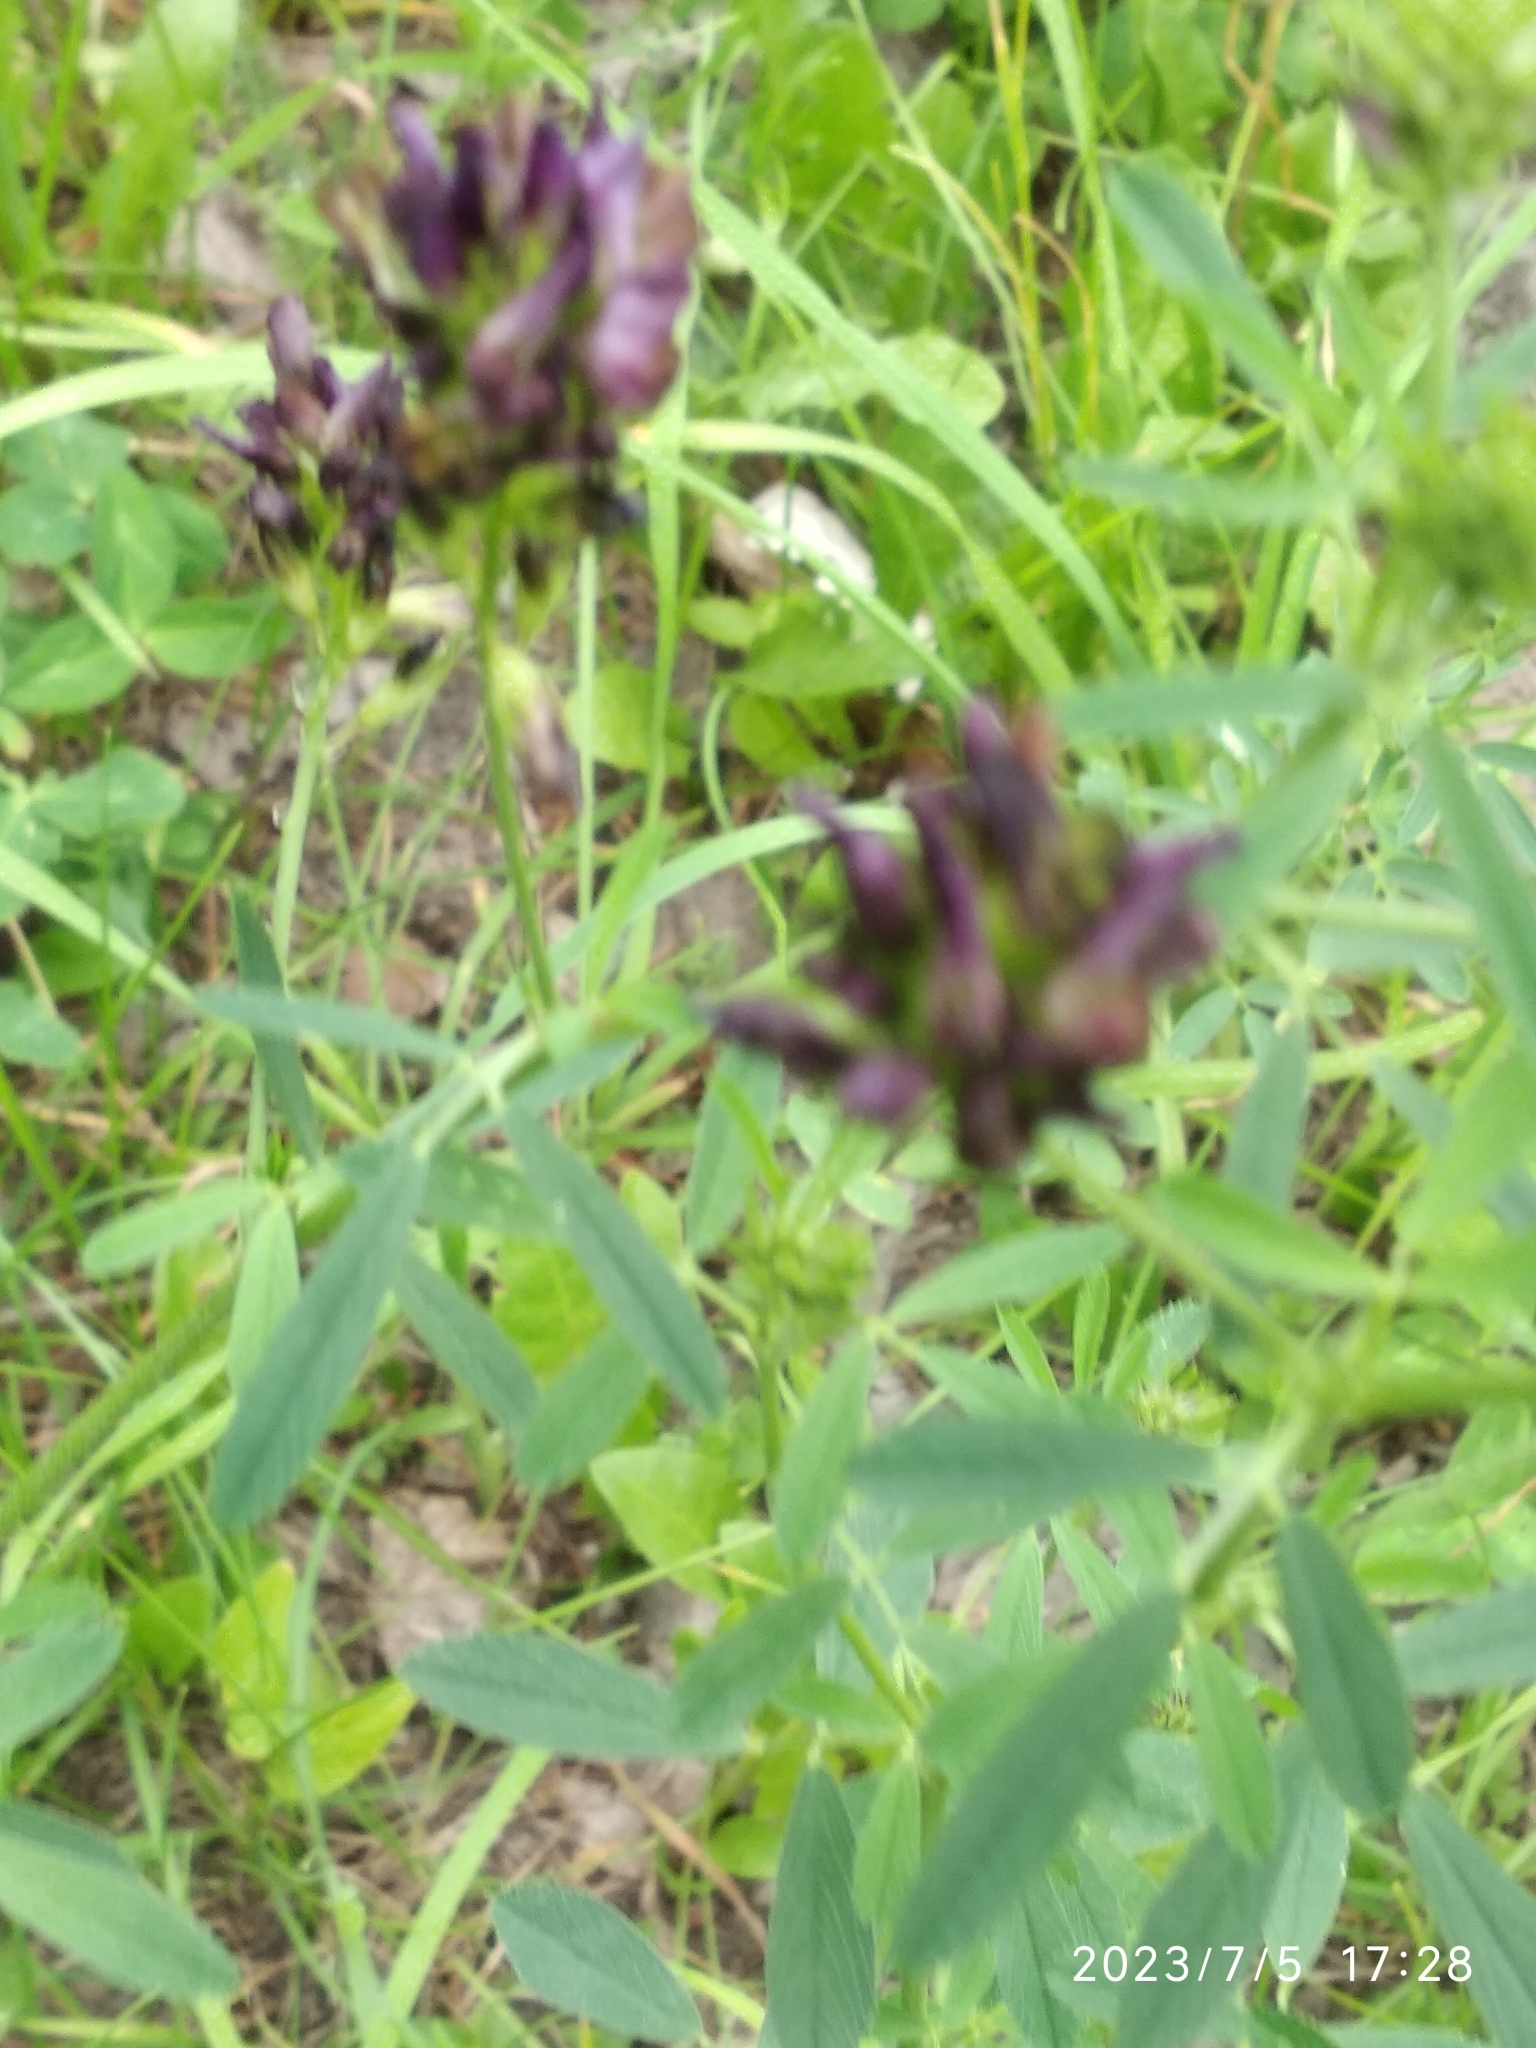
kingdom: Plantae
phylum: Tracheophyta
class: Magnoliopsida
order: Fabales
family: Fabaceae
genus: Medicago
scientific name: Medicago varia
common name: Sand lucerne
